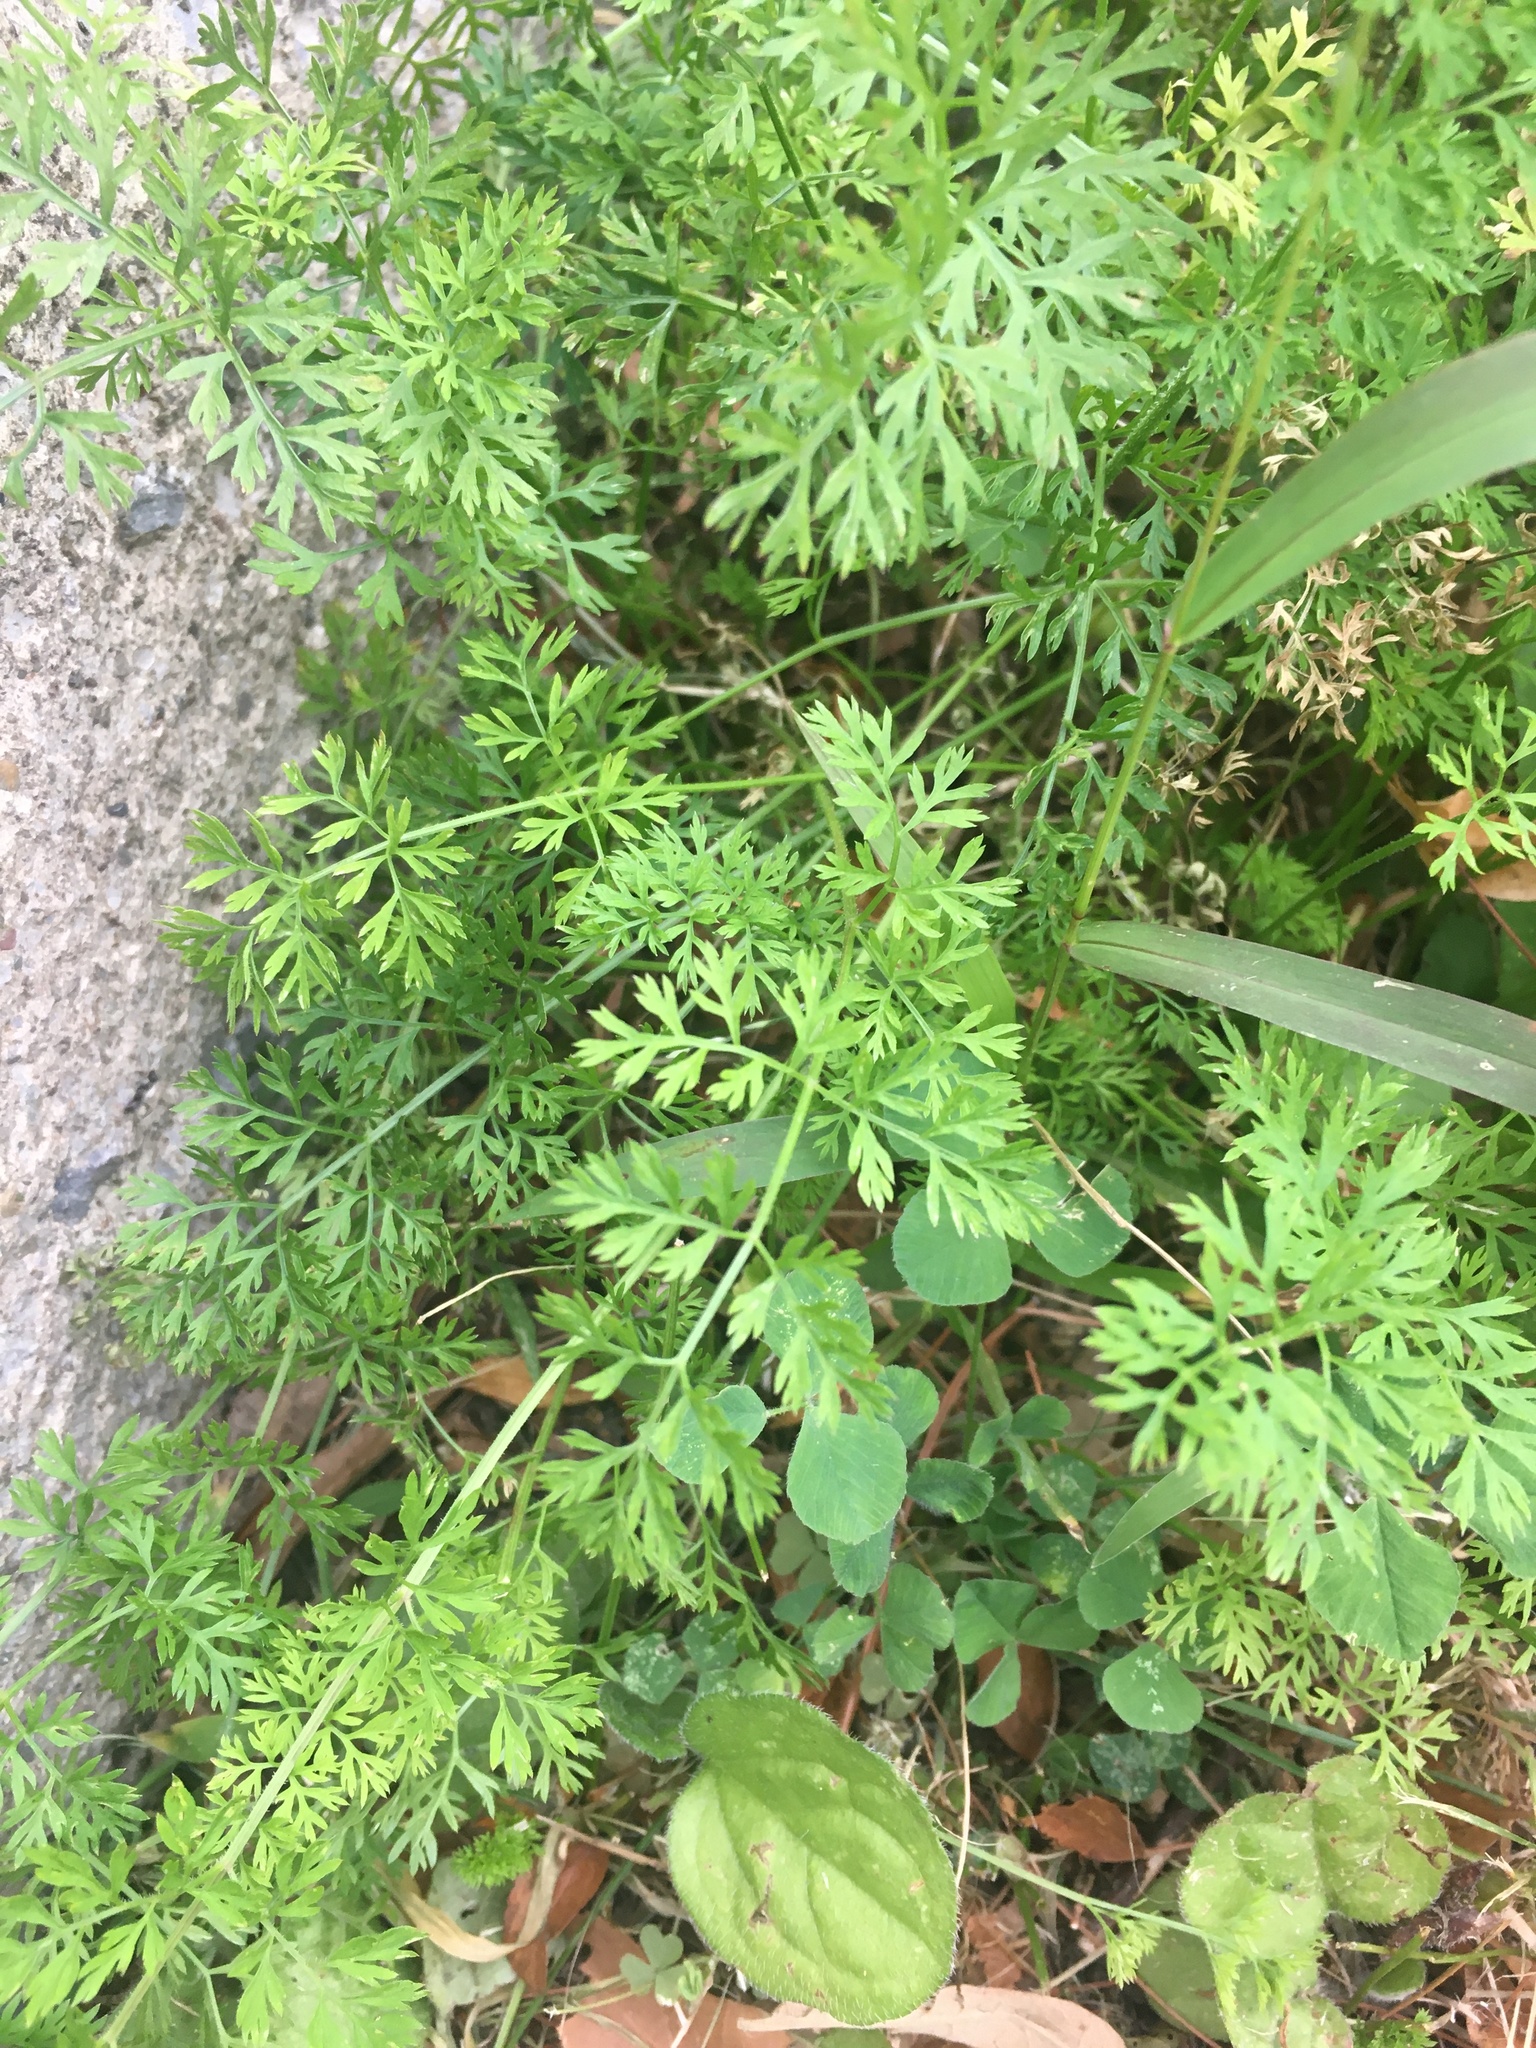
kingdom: Plantae
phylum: Tracheophyta
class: Magnoliopsida
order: Apiales
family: Apiaceae
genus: Daucus
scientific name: Daucus carota
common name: Wild carrot
